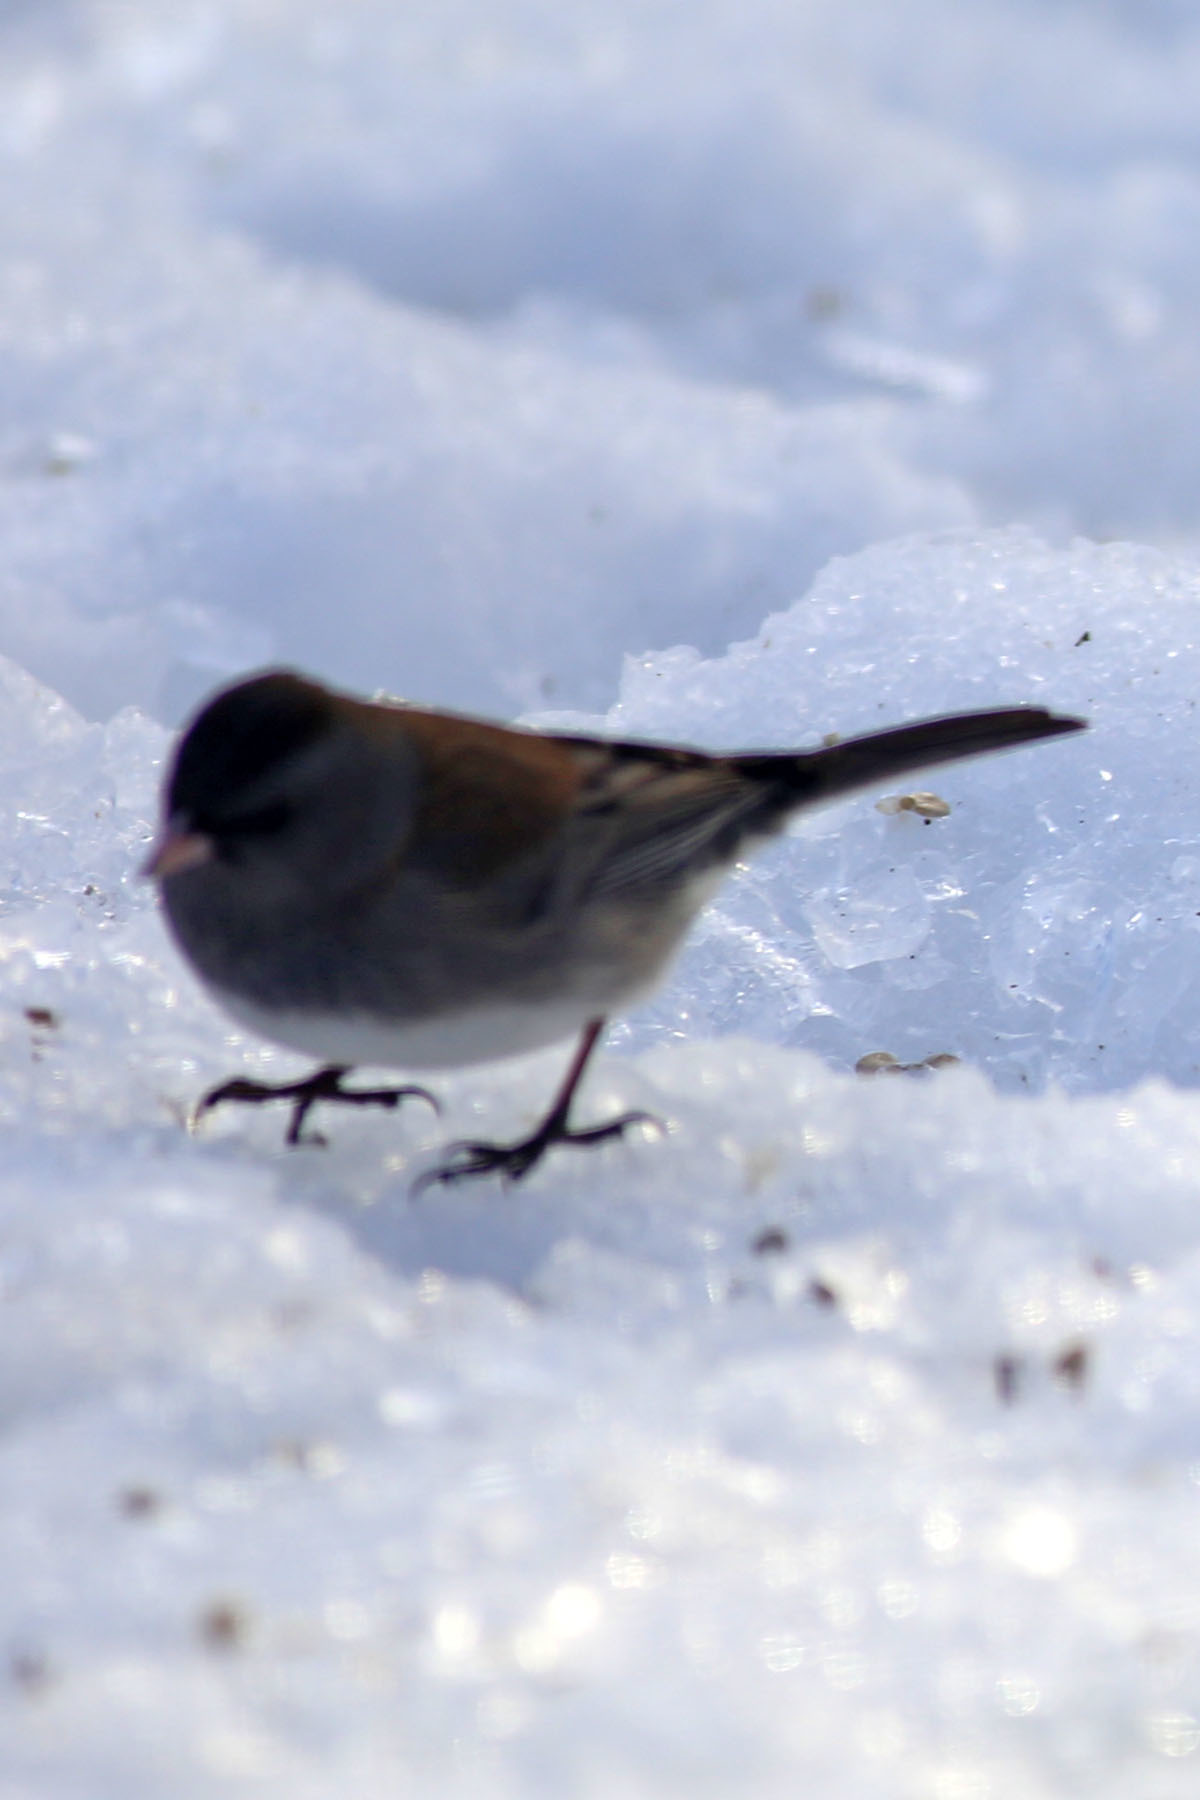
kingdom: Animalia
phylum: Chordata
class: Aves
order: Passeriformes
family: Passerellidae
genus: Junco
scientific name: Junco hyemalis
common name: Dark-eyed junco
